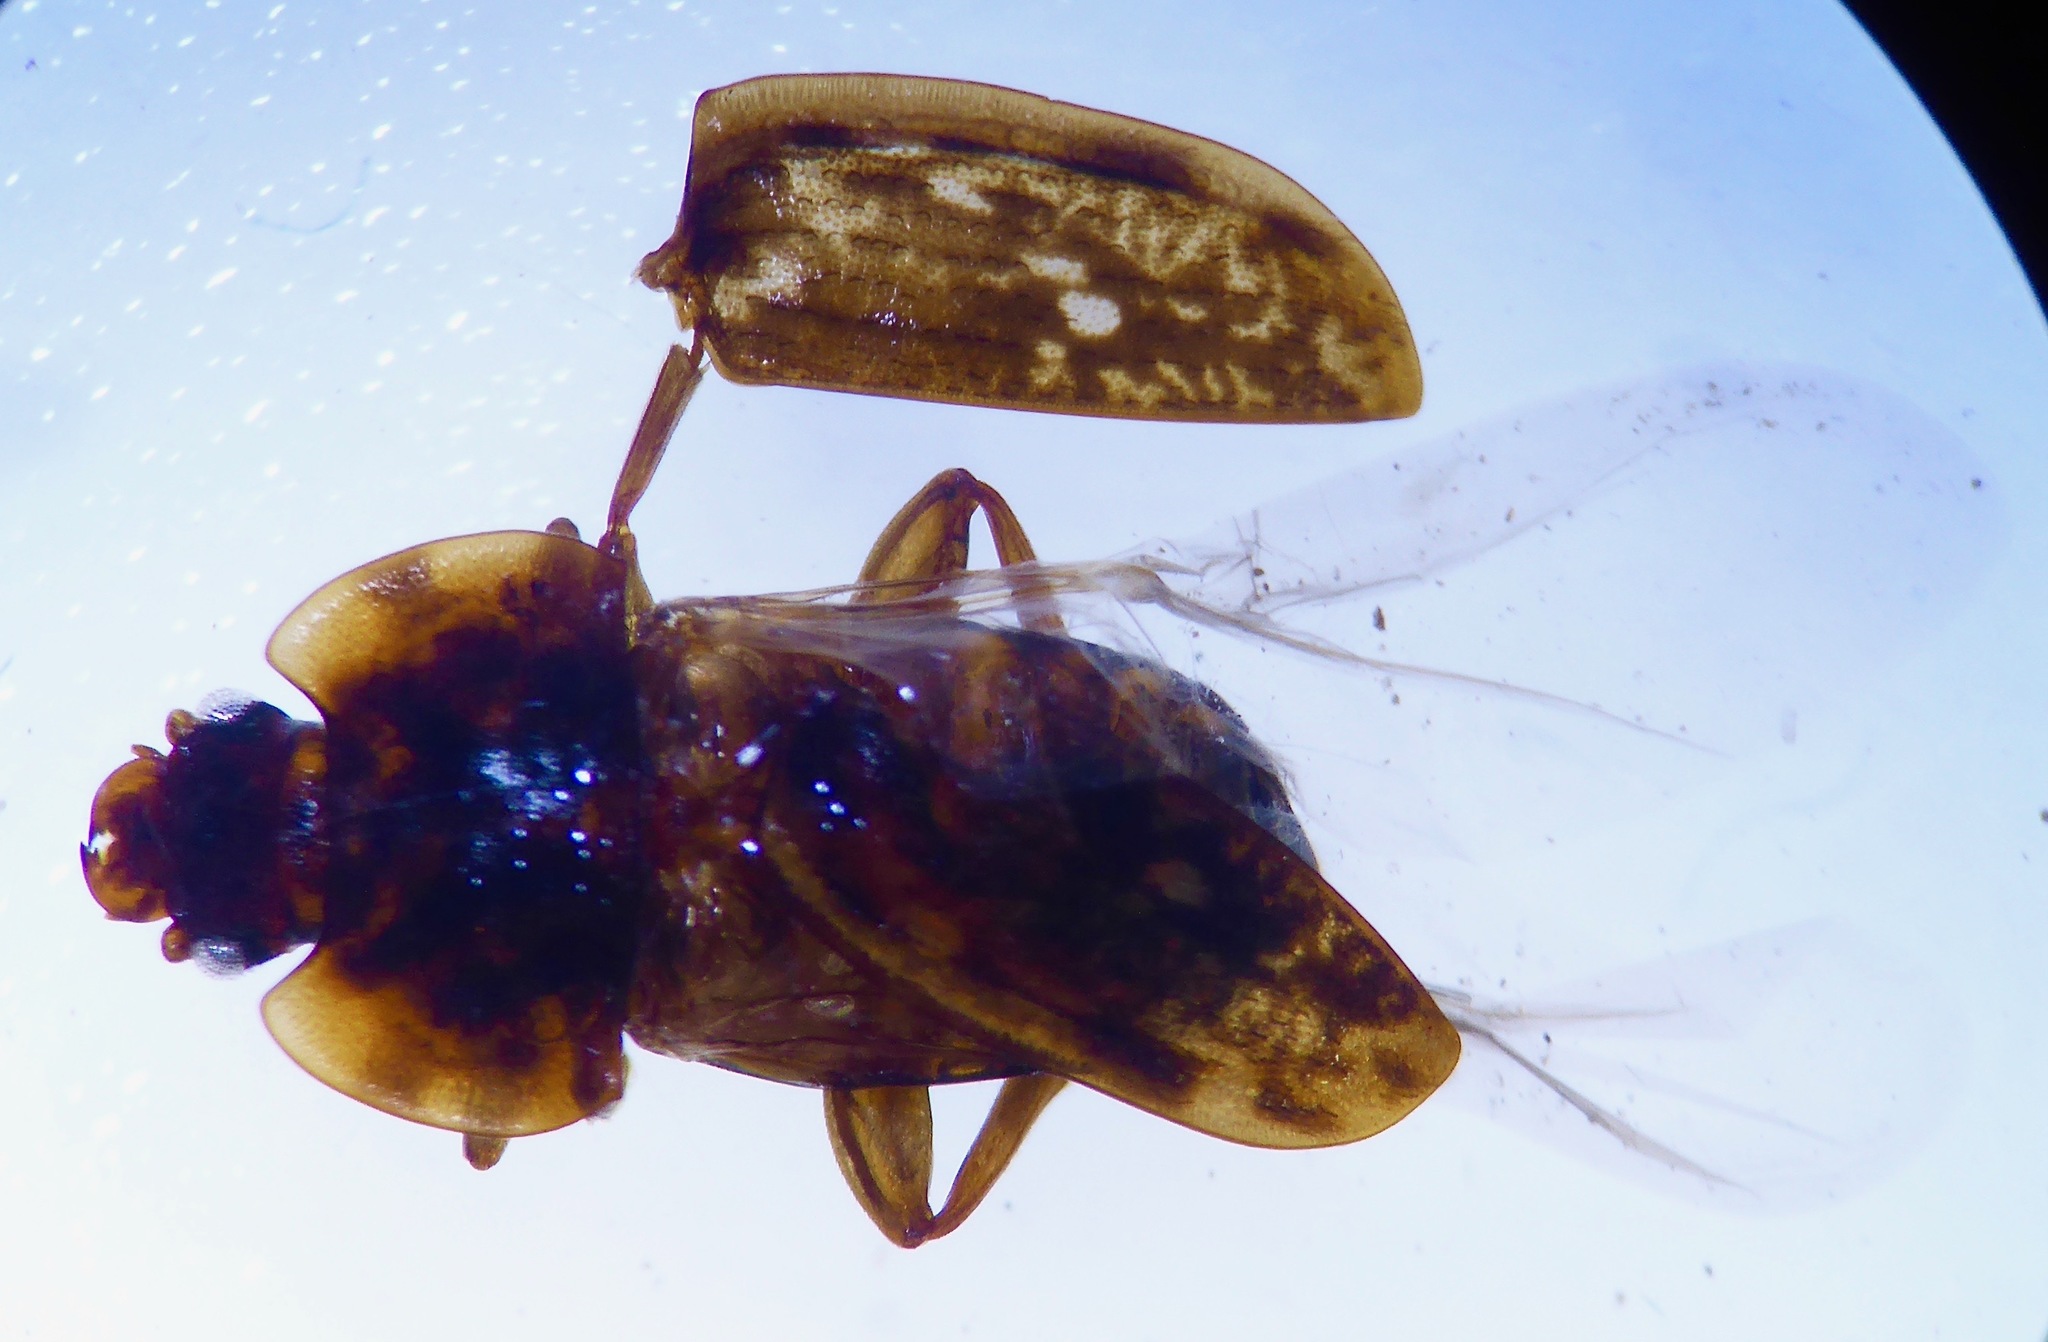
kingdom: Animalia
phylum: Arthropoda
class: Insecta
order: Coleoptera
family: Nitidulidae
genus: Soronia
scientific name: Soronia
